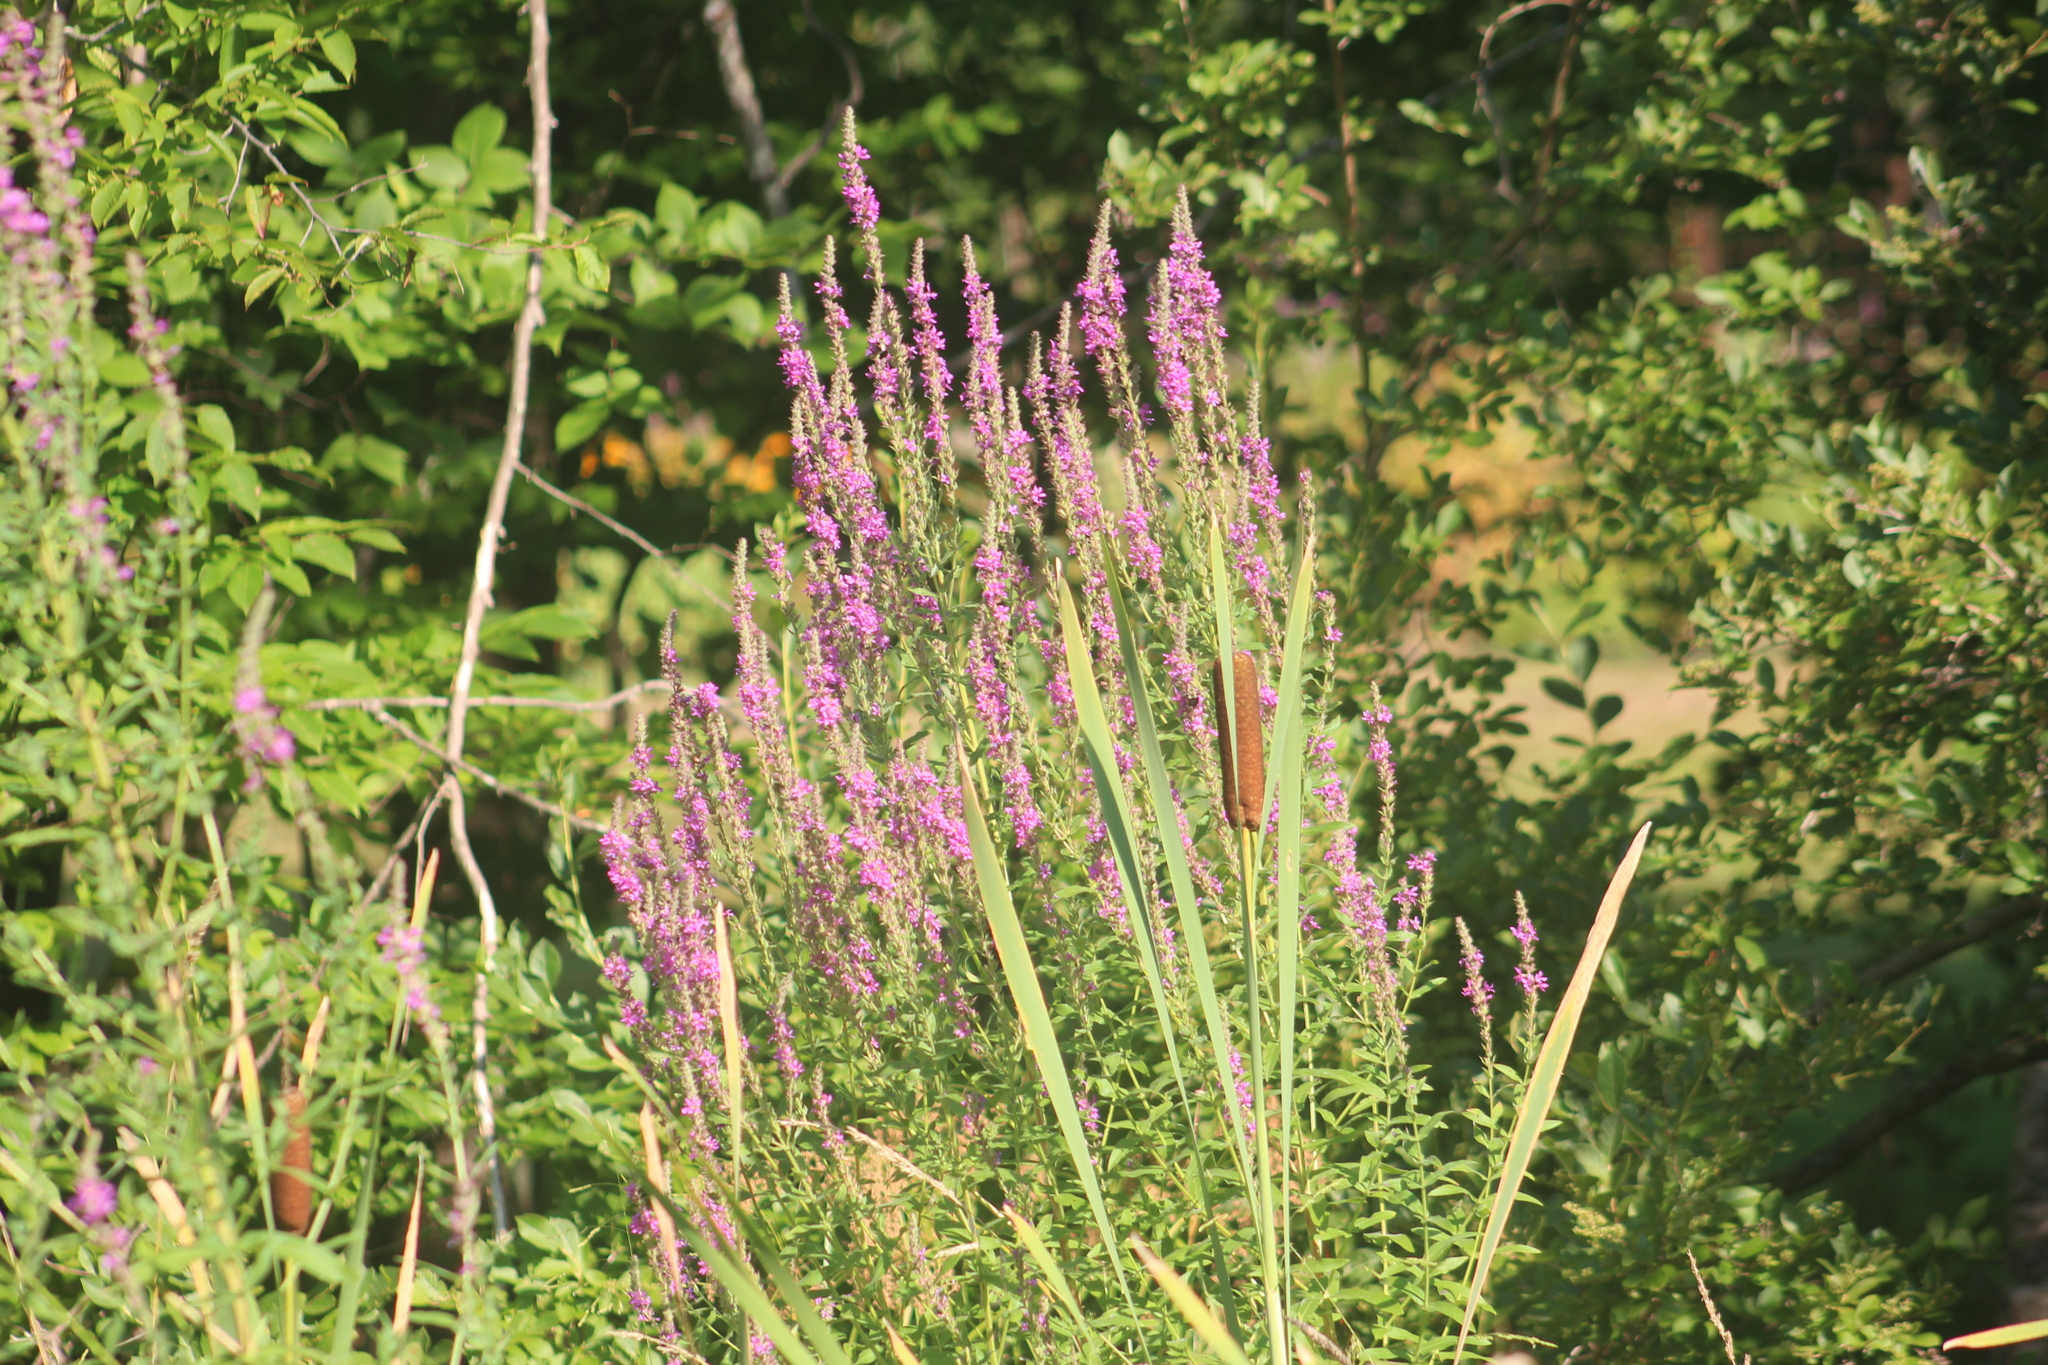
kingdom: Plantae
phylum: Tracheophyta
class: Magnoliopsida
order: Myrtales
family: Lythraceae
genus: Lythrum
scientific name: Lythrum salicaria
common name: Purple loosestrife
